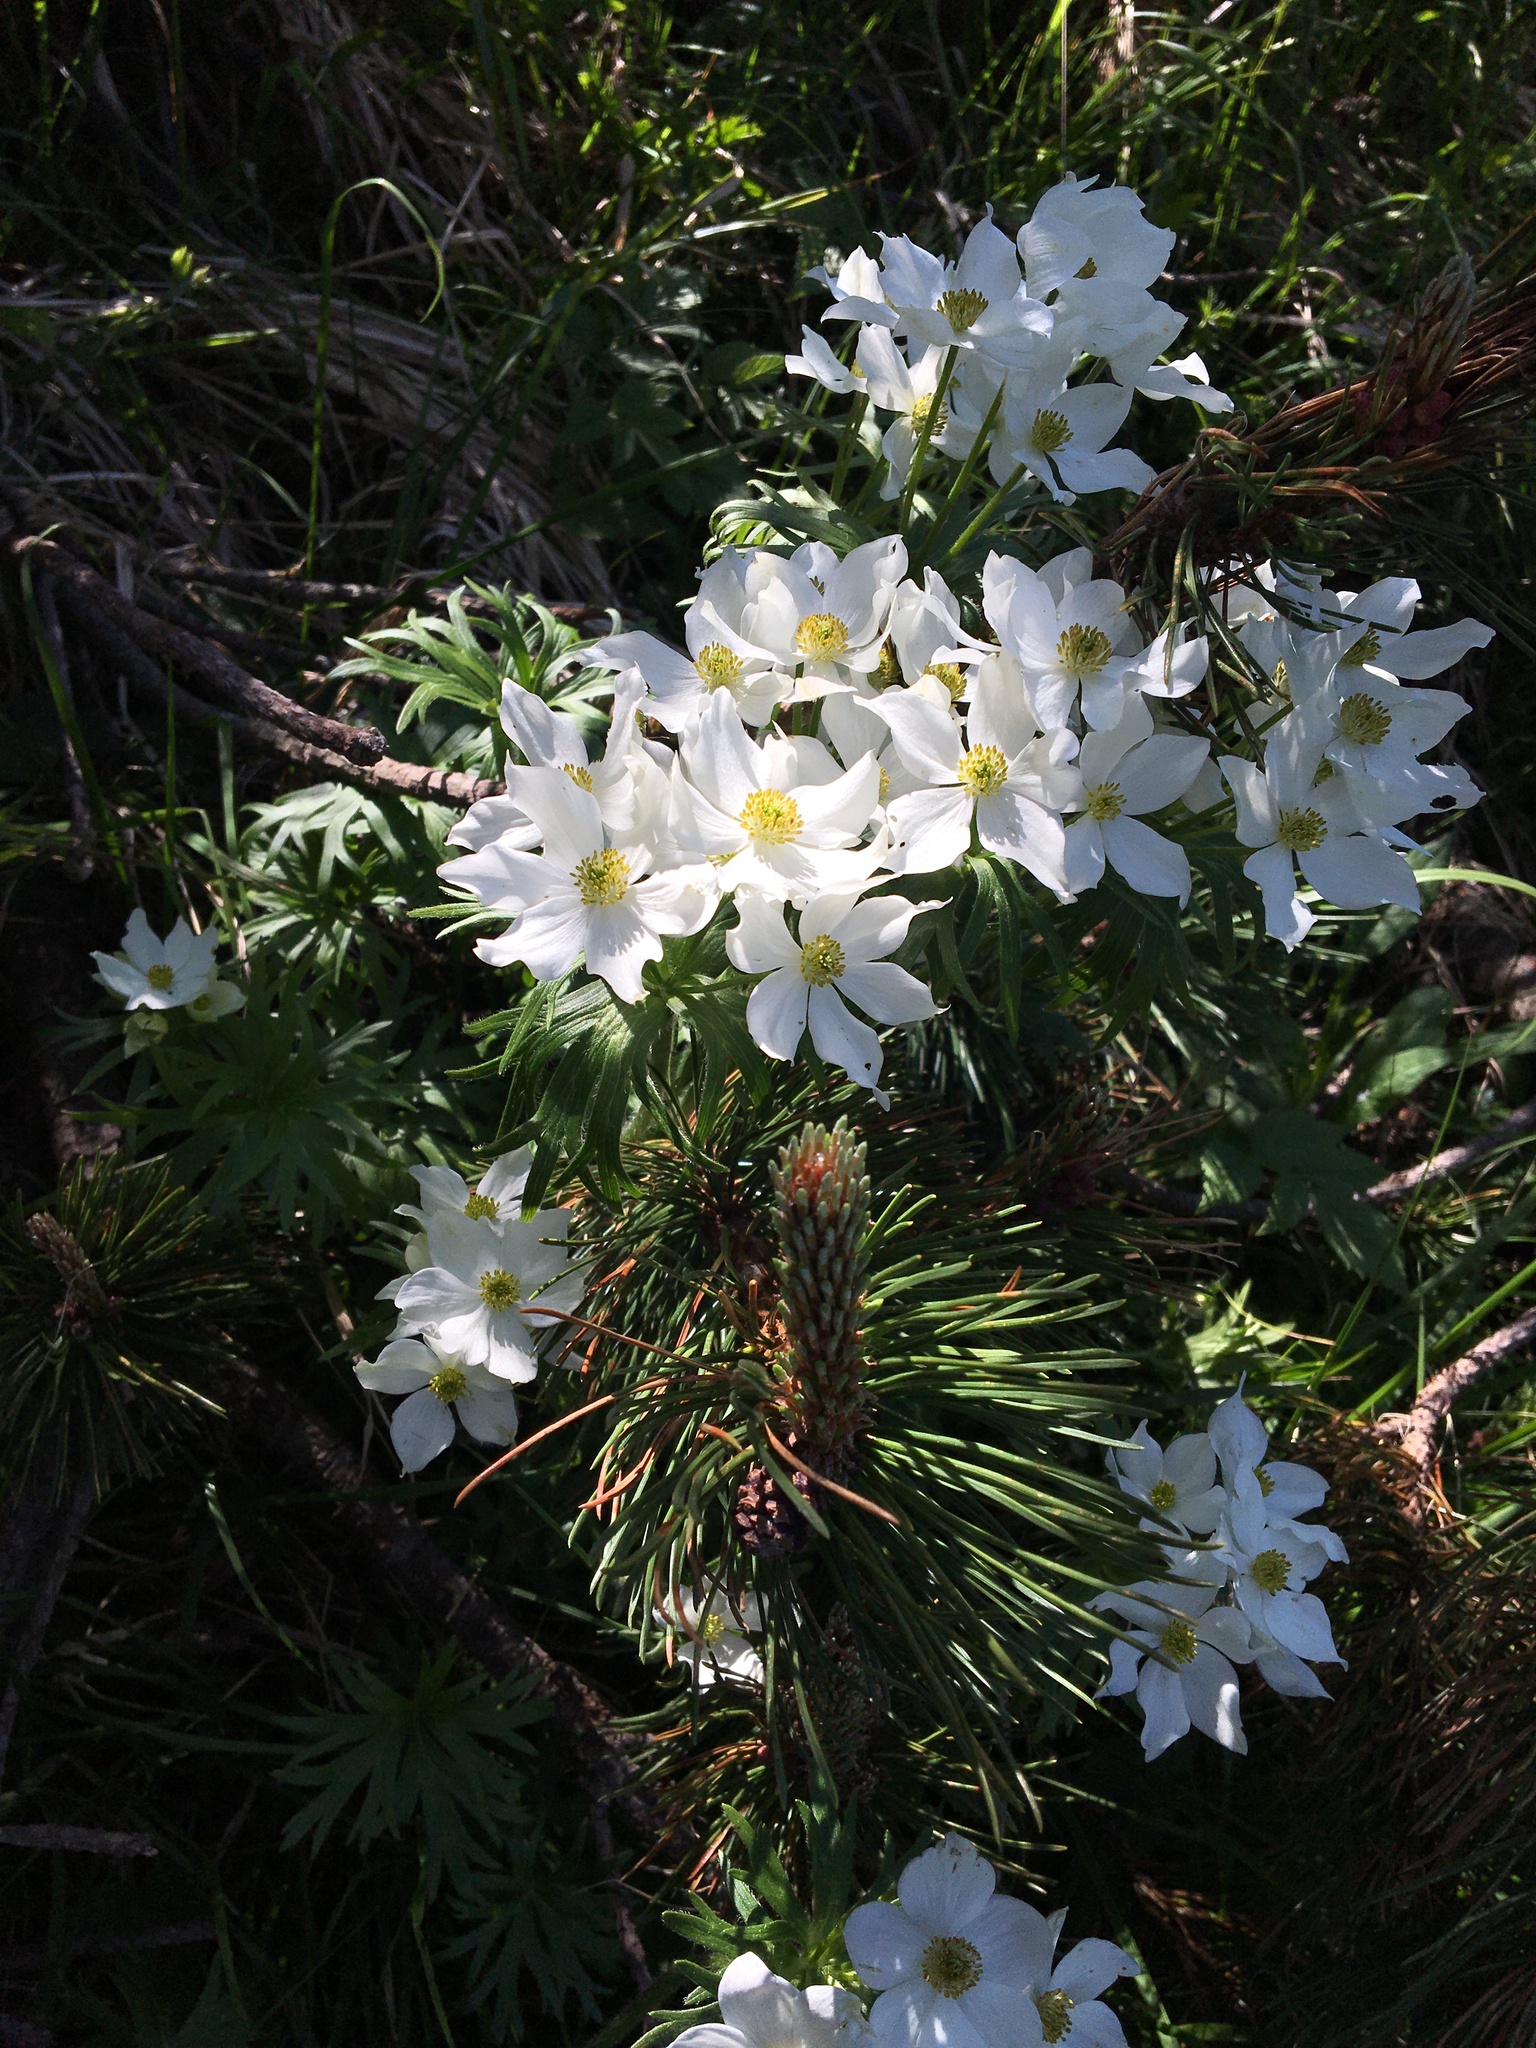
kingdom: Plantae
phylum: Tracheophyta
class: Magnoliopsida
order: Ranunculales
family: Ranunculaceae
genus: Anemonastrum
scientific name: Anemonastrum narcissiflorum
